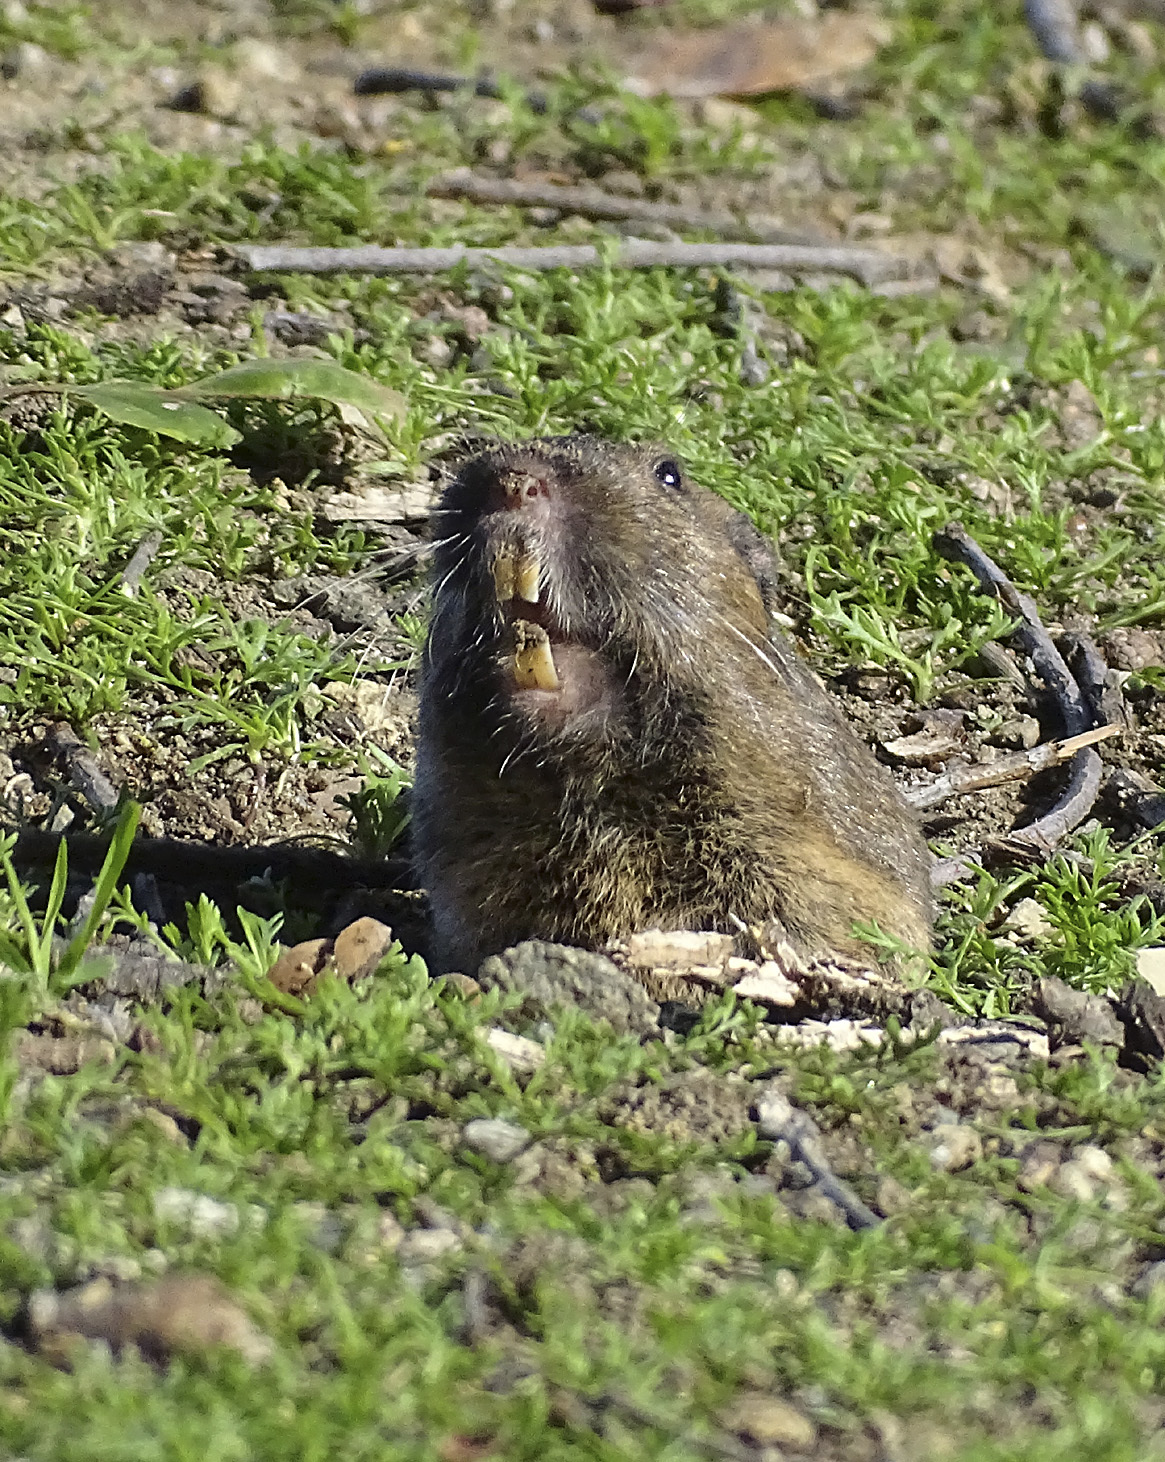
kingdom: Animalia
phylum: Chordata
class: Mammalia
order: Rodentia
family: Geomyidae
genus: Thomomys
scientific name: Thomomys bottae
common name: Botta's pocket gopher
